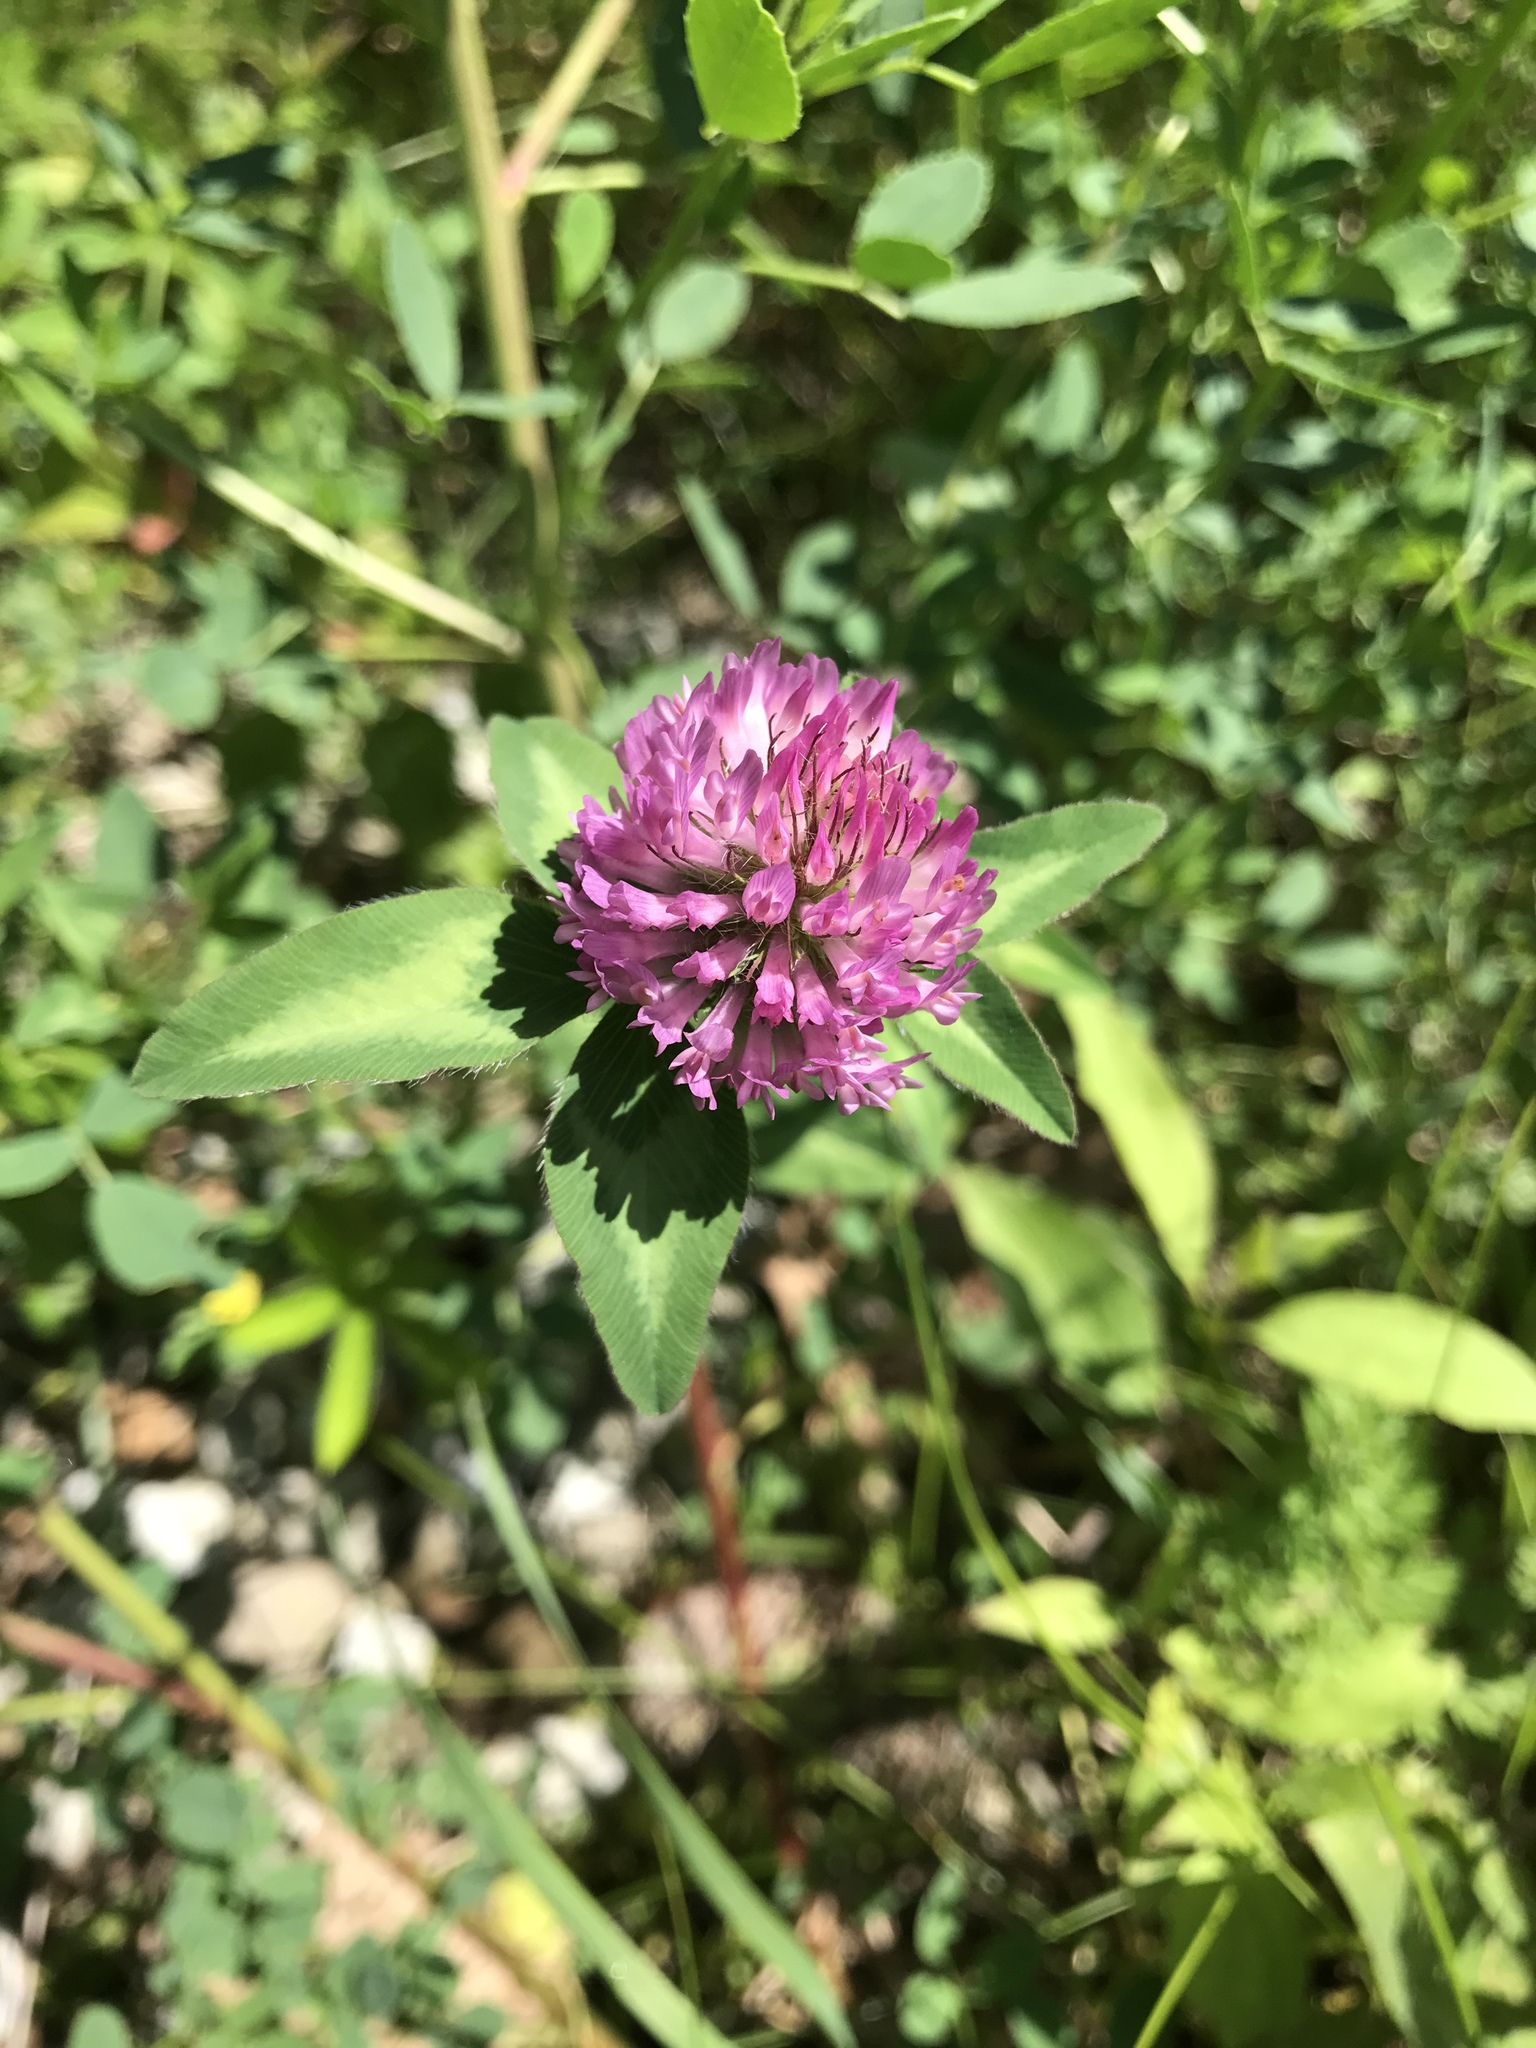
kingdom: Plantae
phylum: Tracheophyta
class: Magnoliopsida
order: Fabales
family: Fabaceae
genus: Trifolium
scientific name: Trifolium pratense
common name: Red clover
